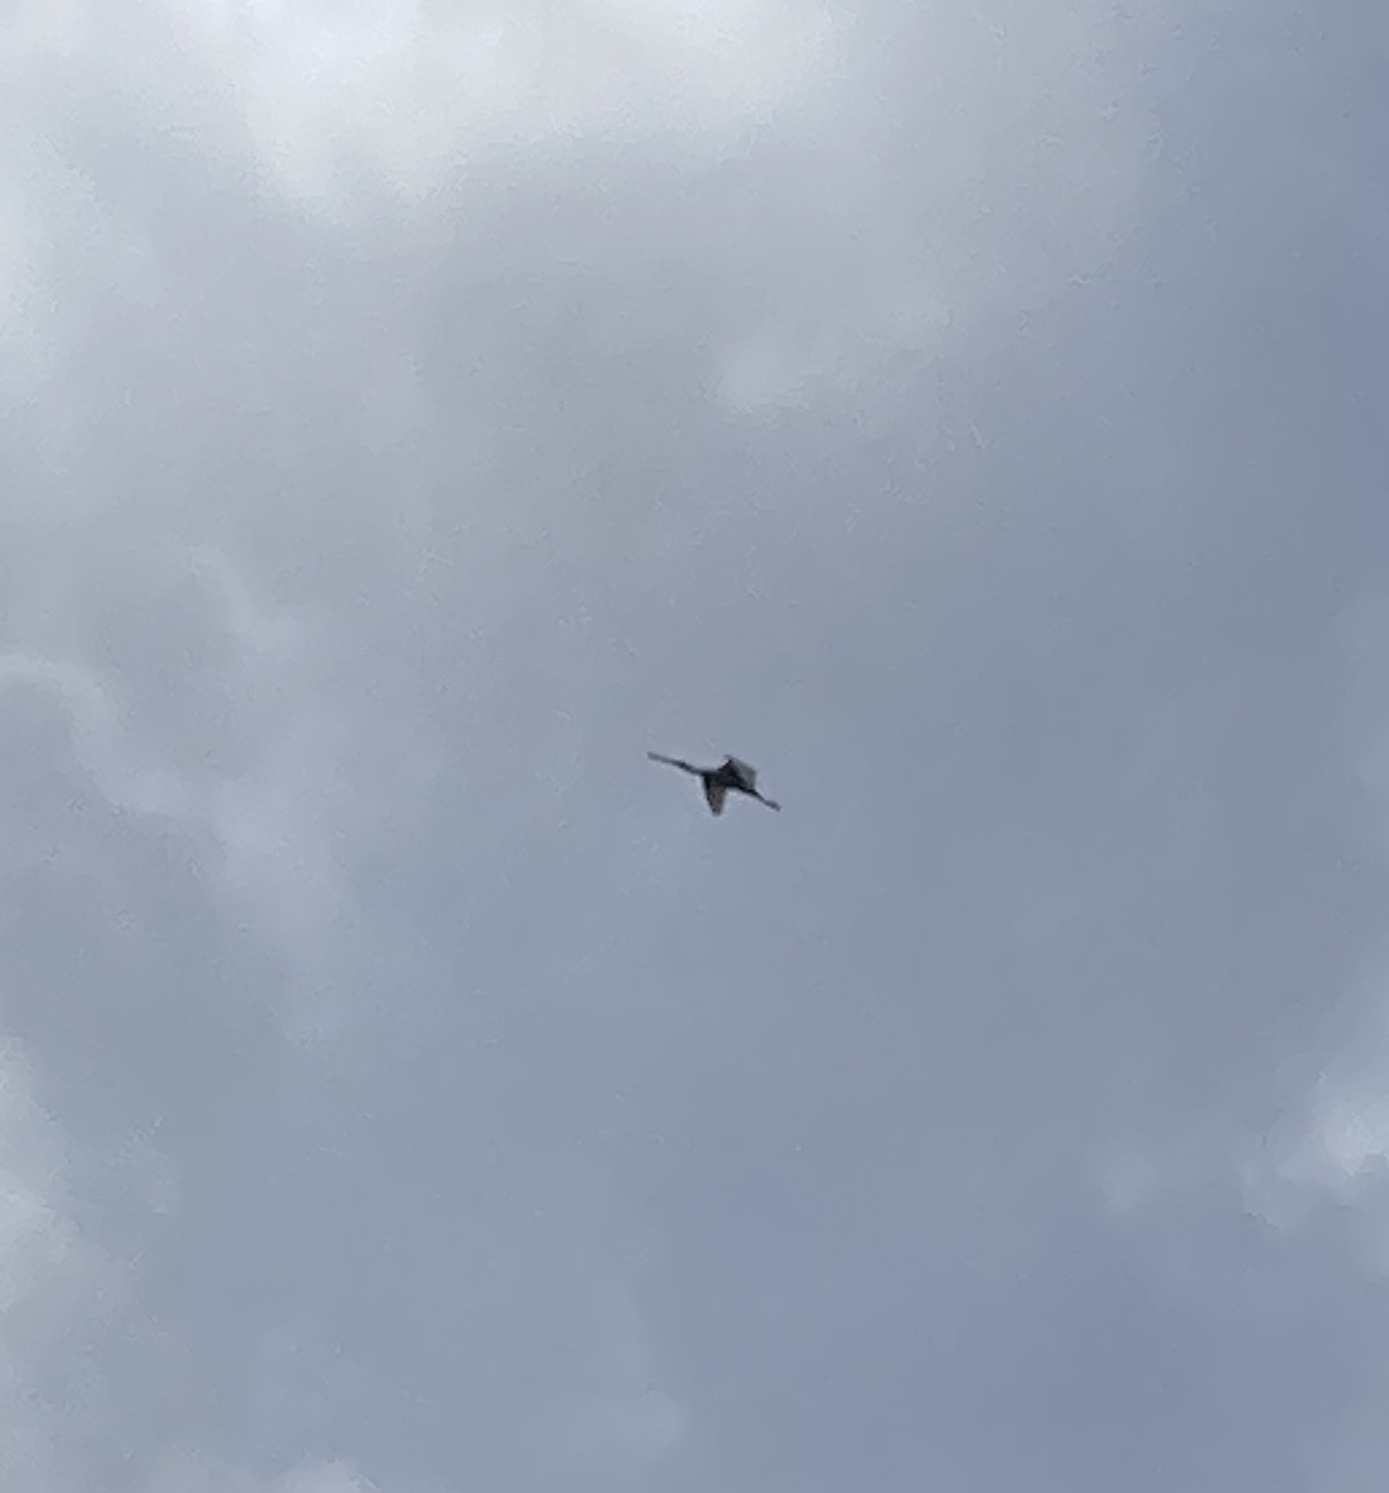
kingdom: Animalia
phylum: Chordata
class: Aves
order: Pelecaniformes
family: Threskiornithidae
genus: Platalea
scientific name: Platalea leucorodia
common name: Eurasian spoonbill
